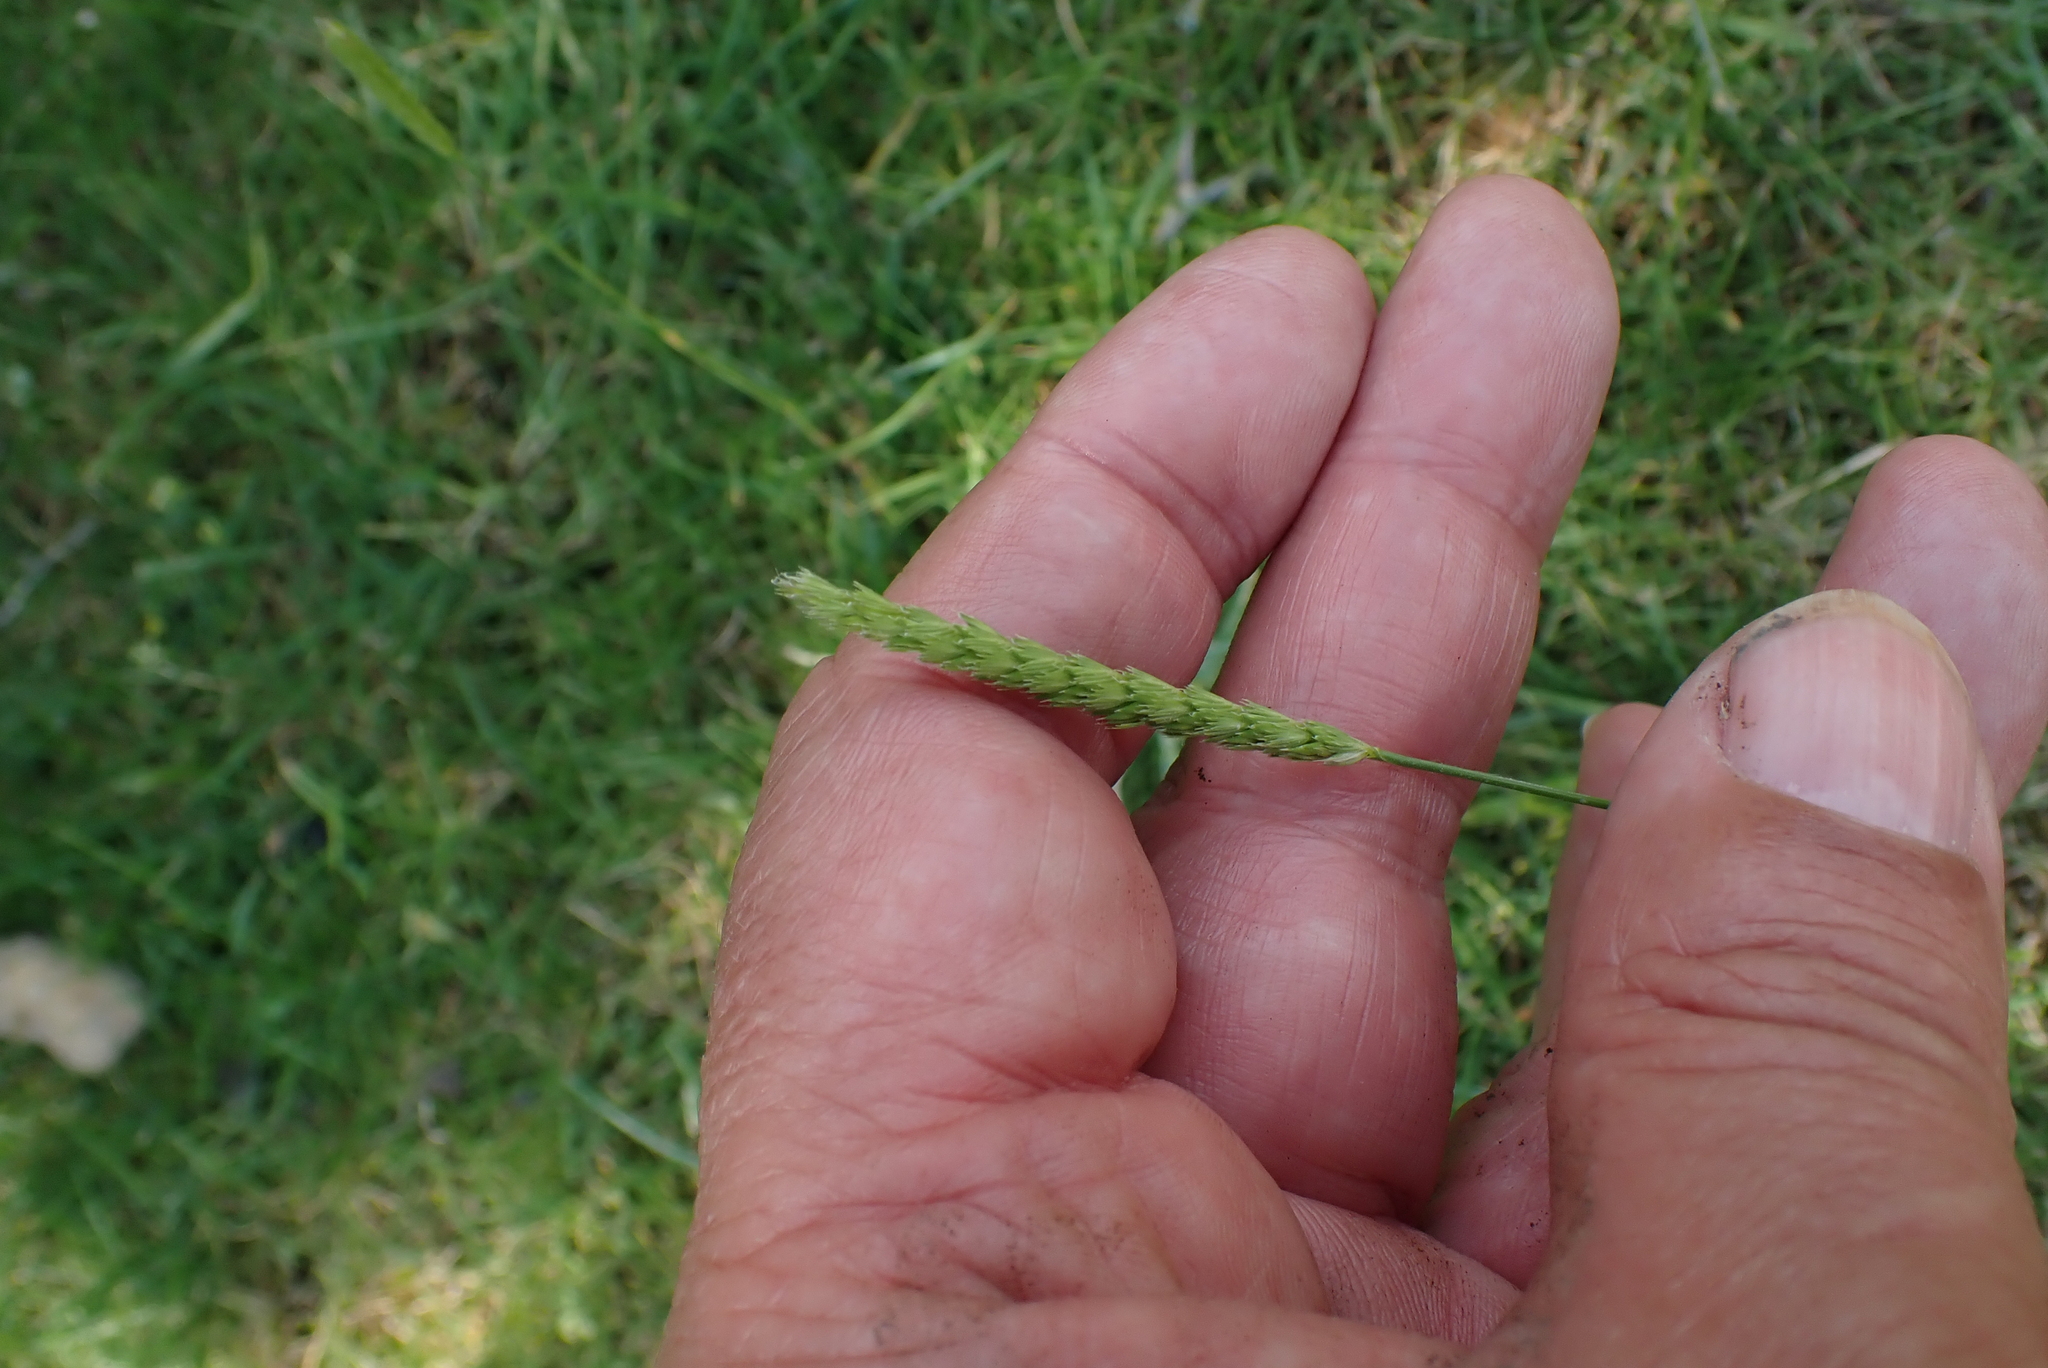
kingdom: Plantae
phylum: Tracheophyta
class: Liliopsida
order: Poales
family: Poaceae
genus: Cynosurus
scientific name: Cynosurus cristatus
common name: Crested dog's-tail
